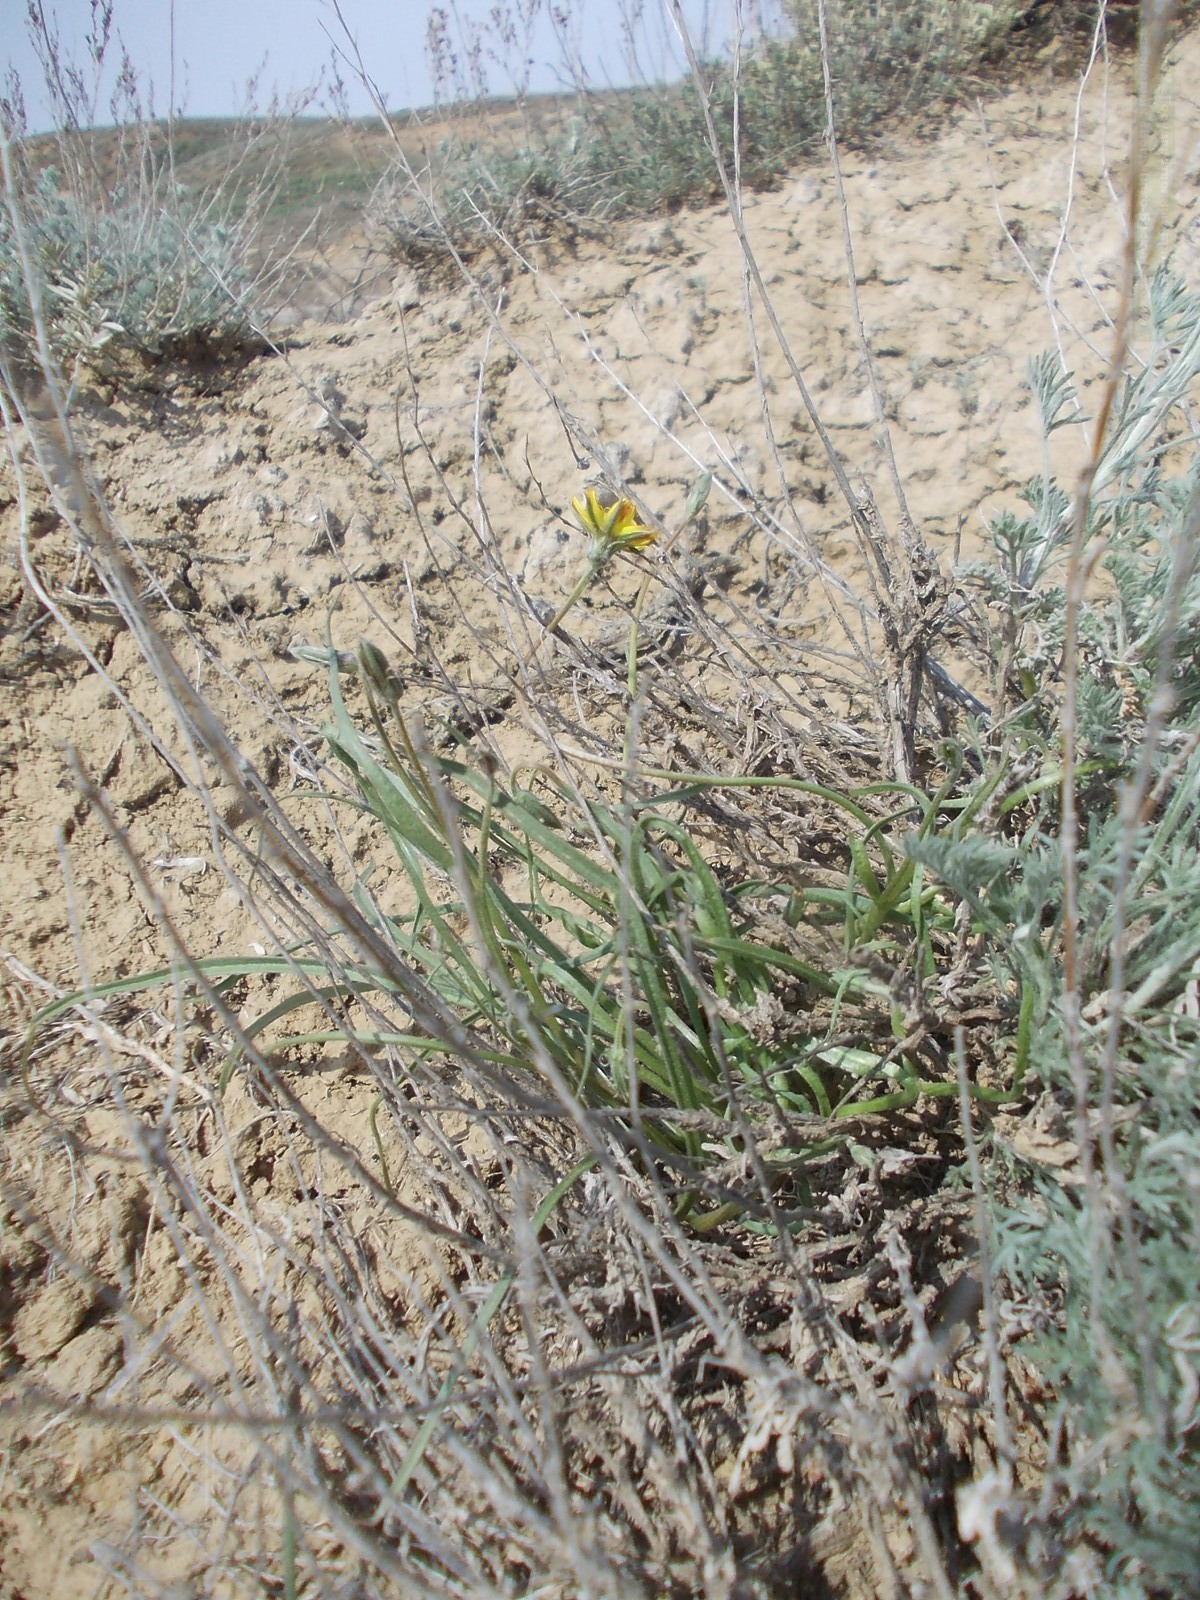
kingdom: Plantae
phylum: Tracheophyta
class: Magnoliopsida
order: Asterales
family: Asteraceae
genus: Takhtajaniantha
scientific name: Takhtajaniantha pusilla
